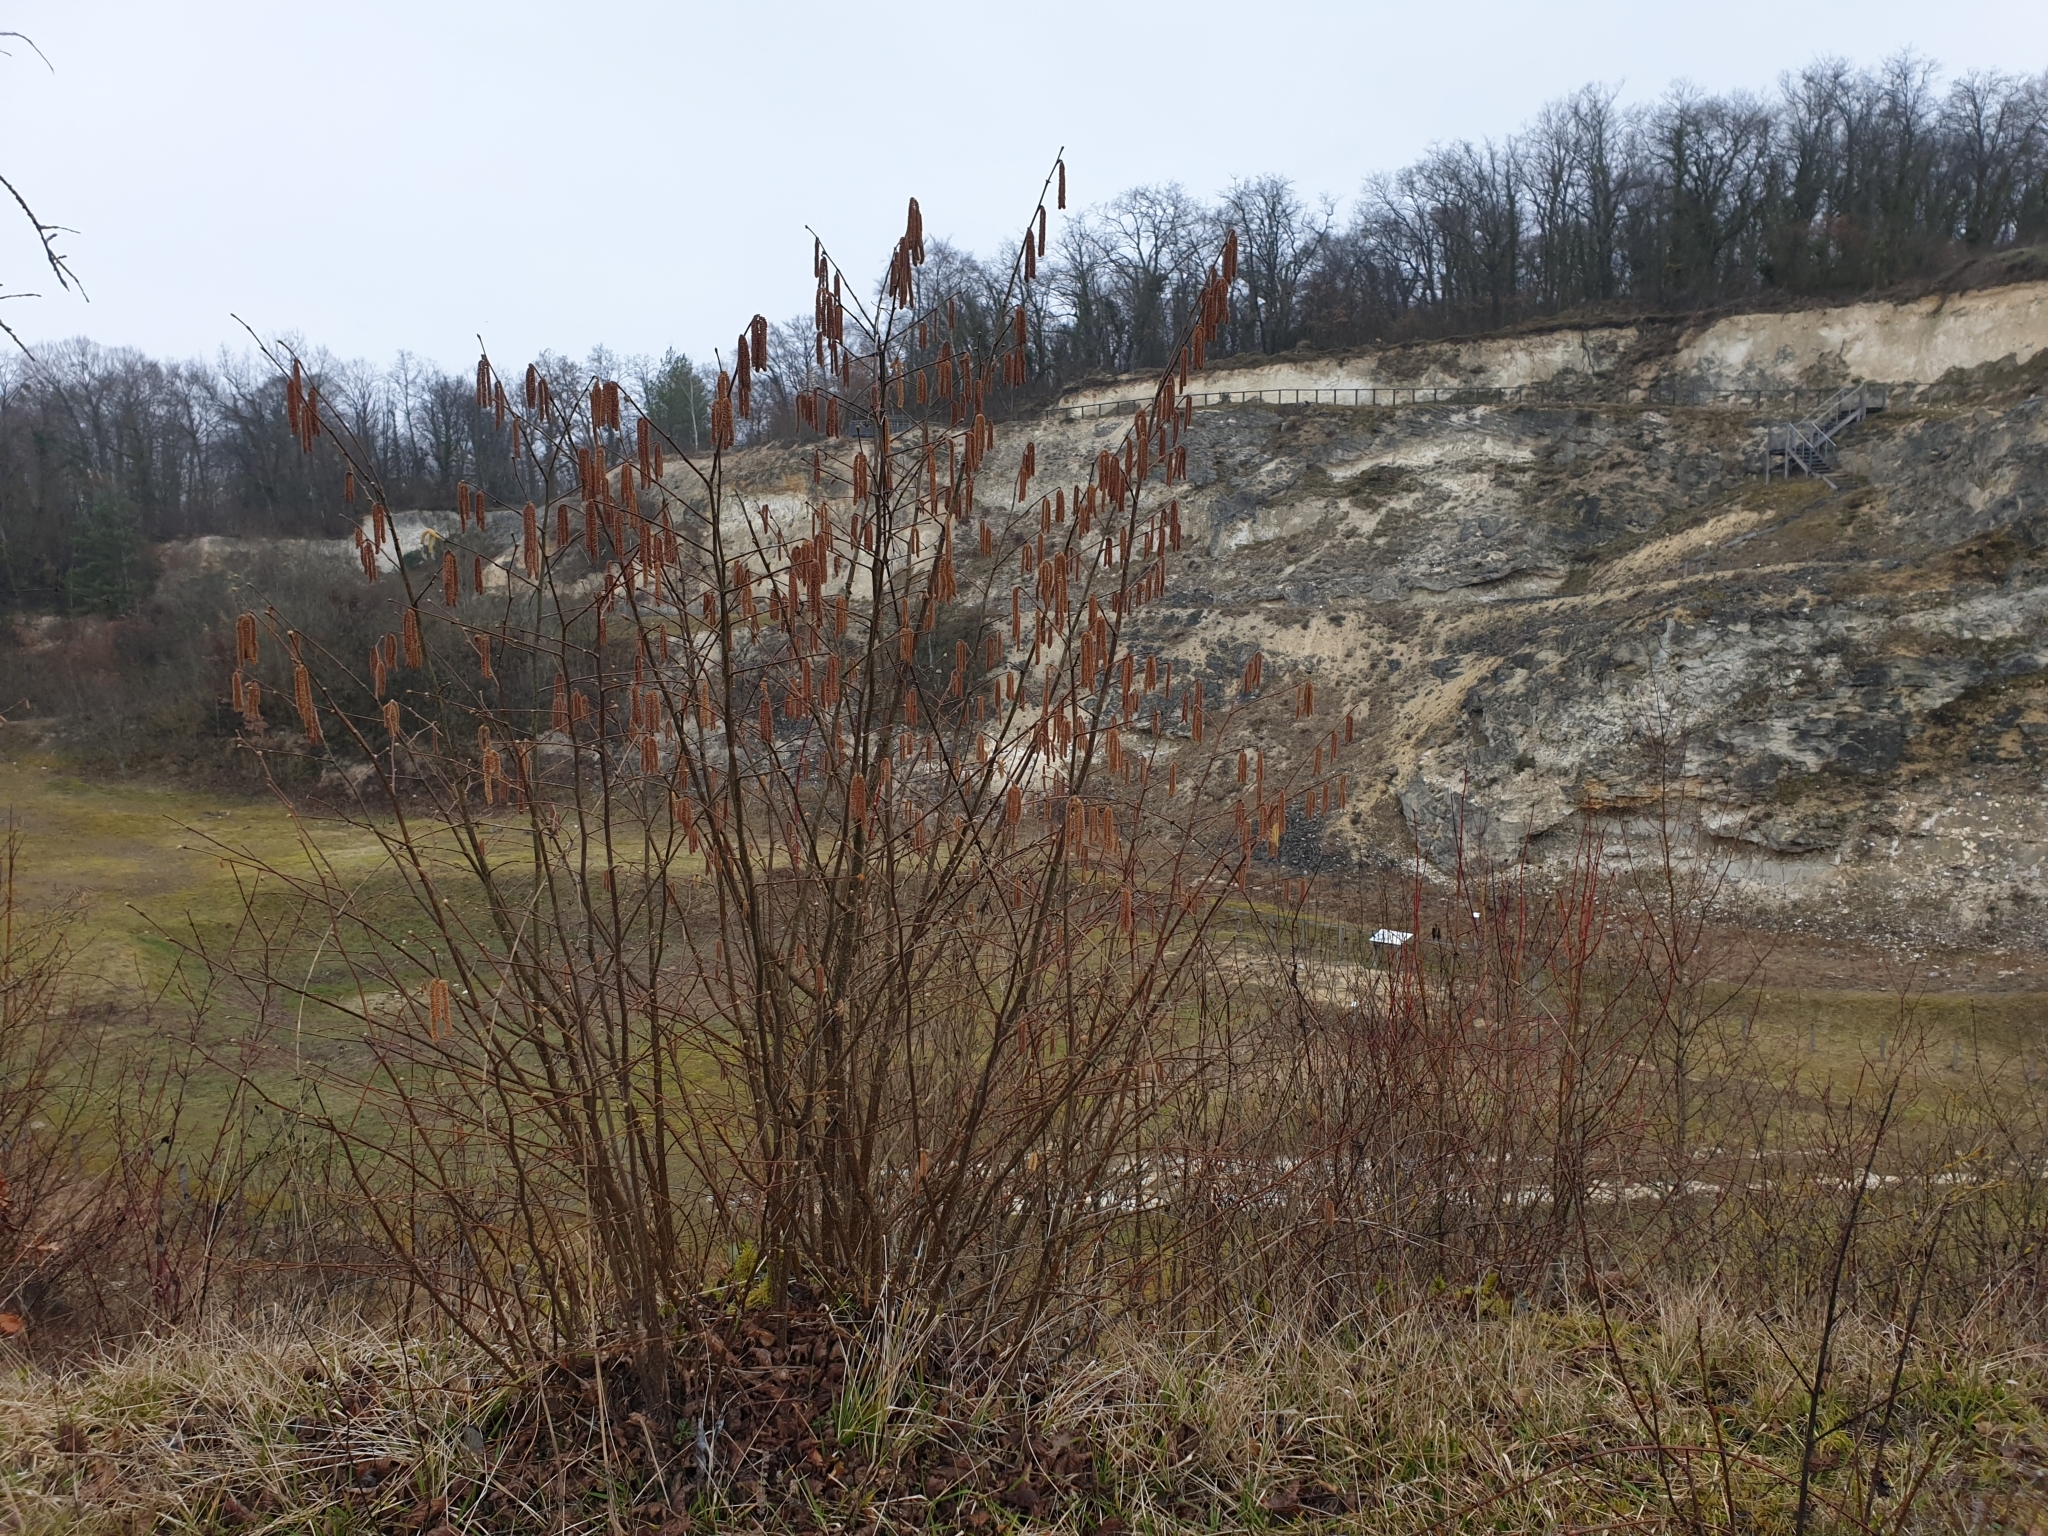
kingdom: Plantae
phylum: Tracheophyta
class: Magnoliopsida
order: Fagales
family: Betulaceae
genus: Corylus
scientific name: Corylus avellana
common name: European hazel
